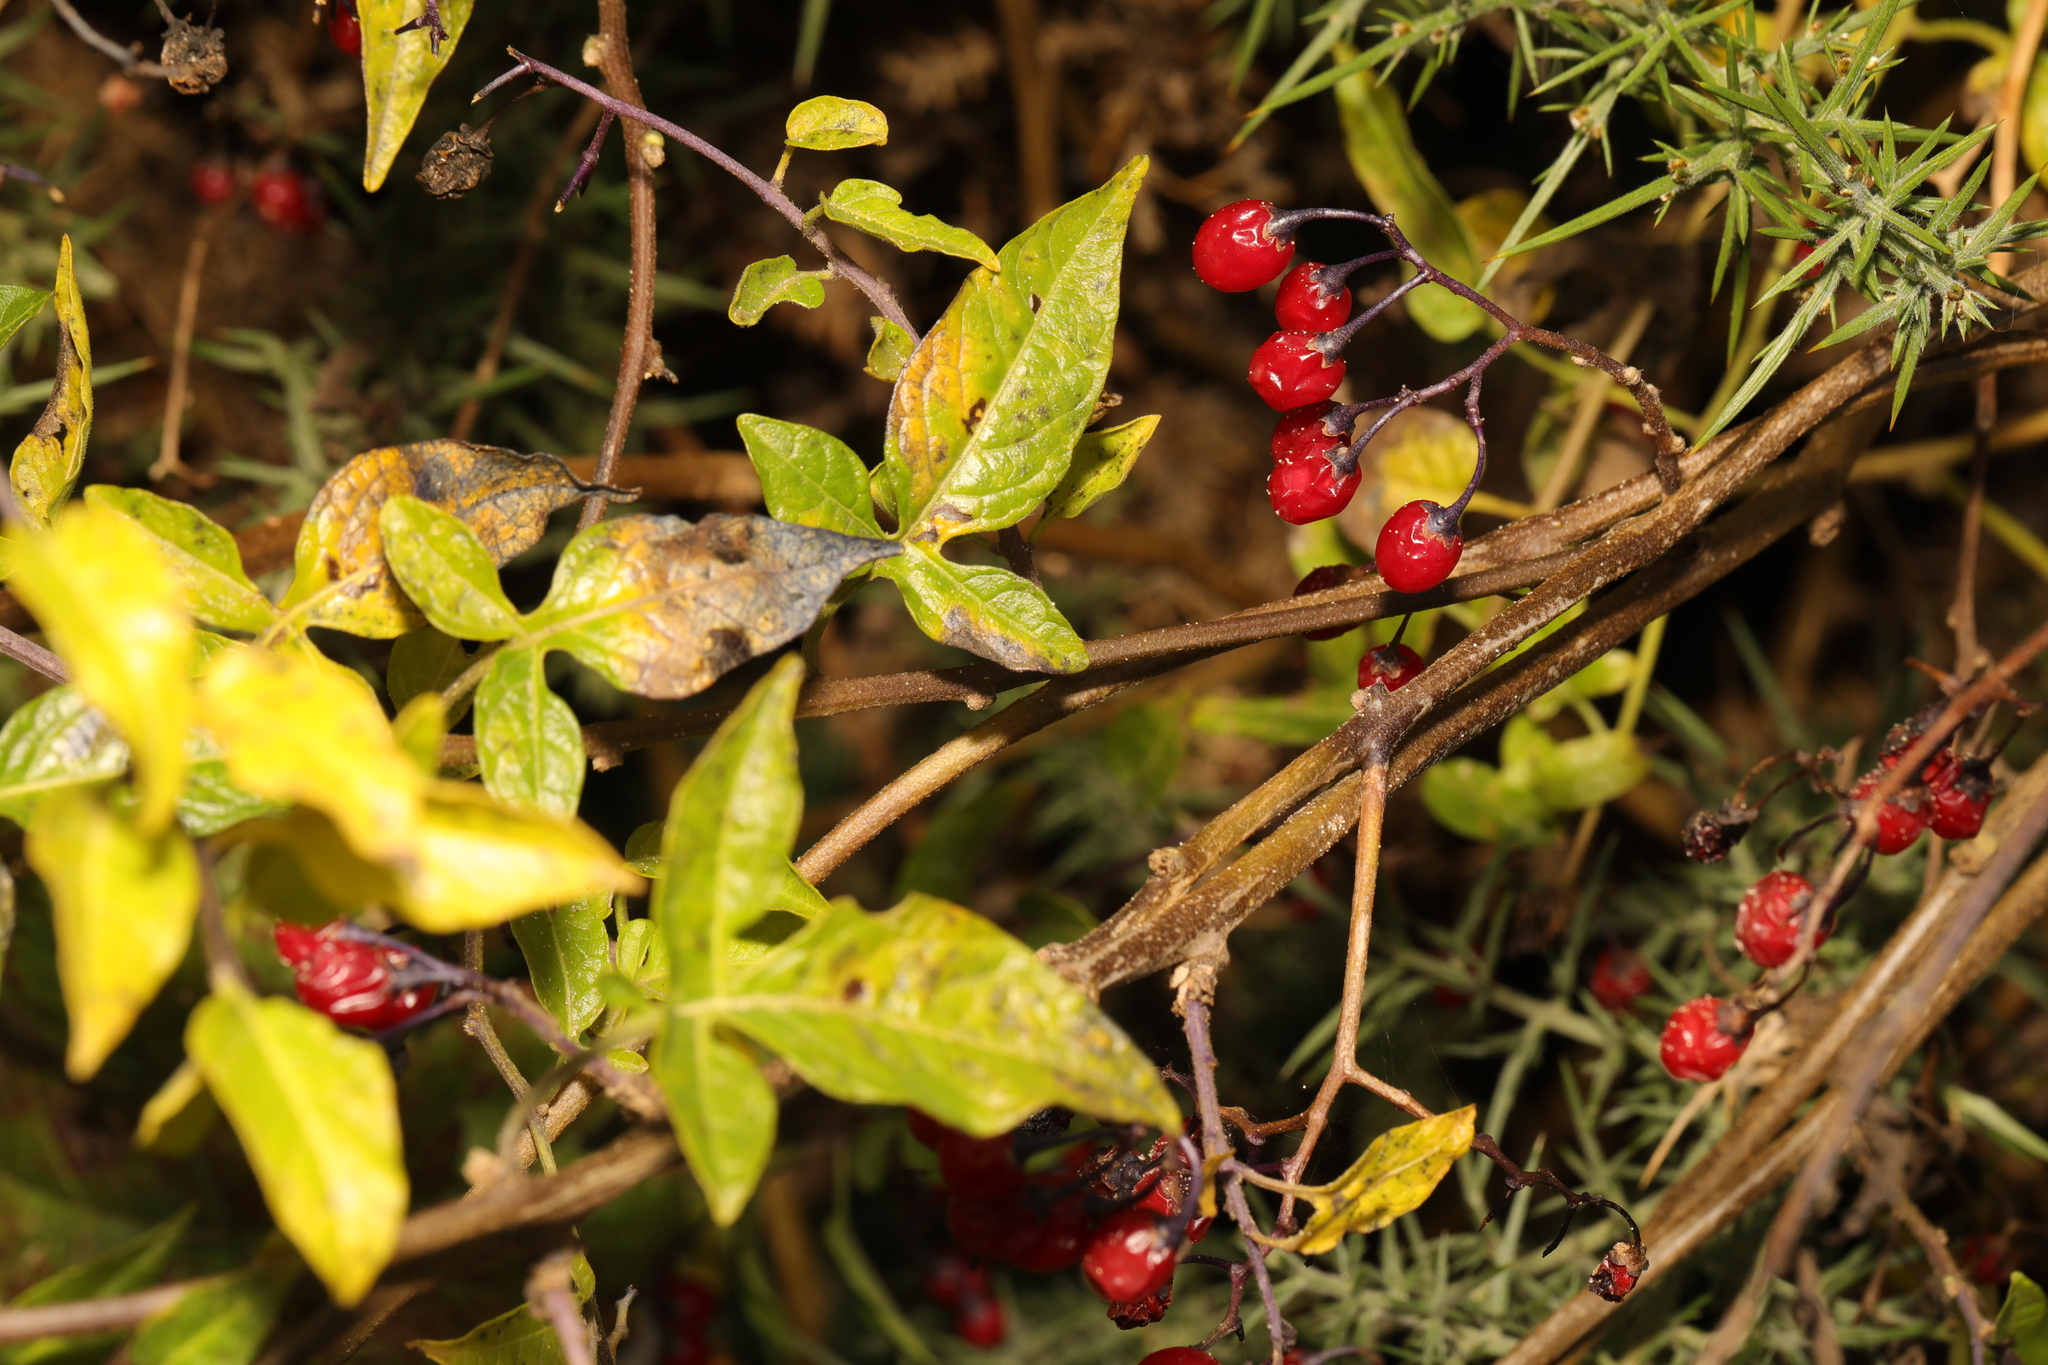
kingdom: Plantae
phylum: Tracheophyta
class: Magnoliopsida
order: Solanales
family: Solanaceae
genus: Solanum
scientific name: Solanum dulcamara
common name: Climbing nightshade
